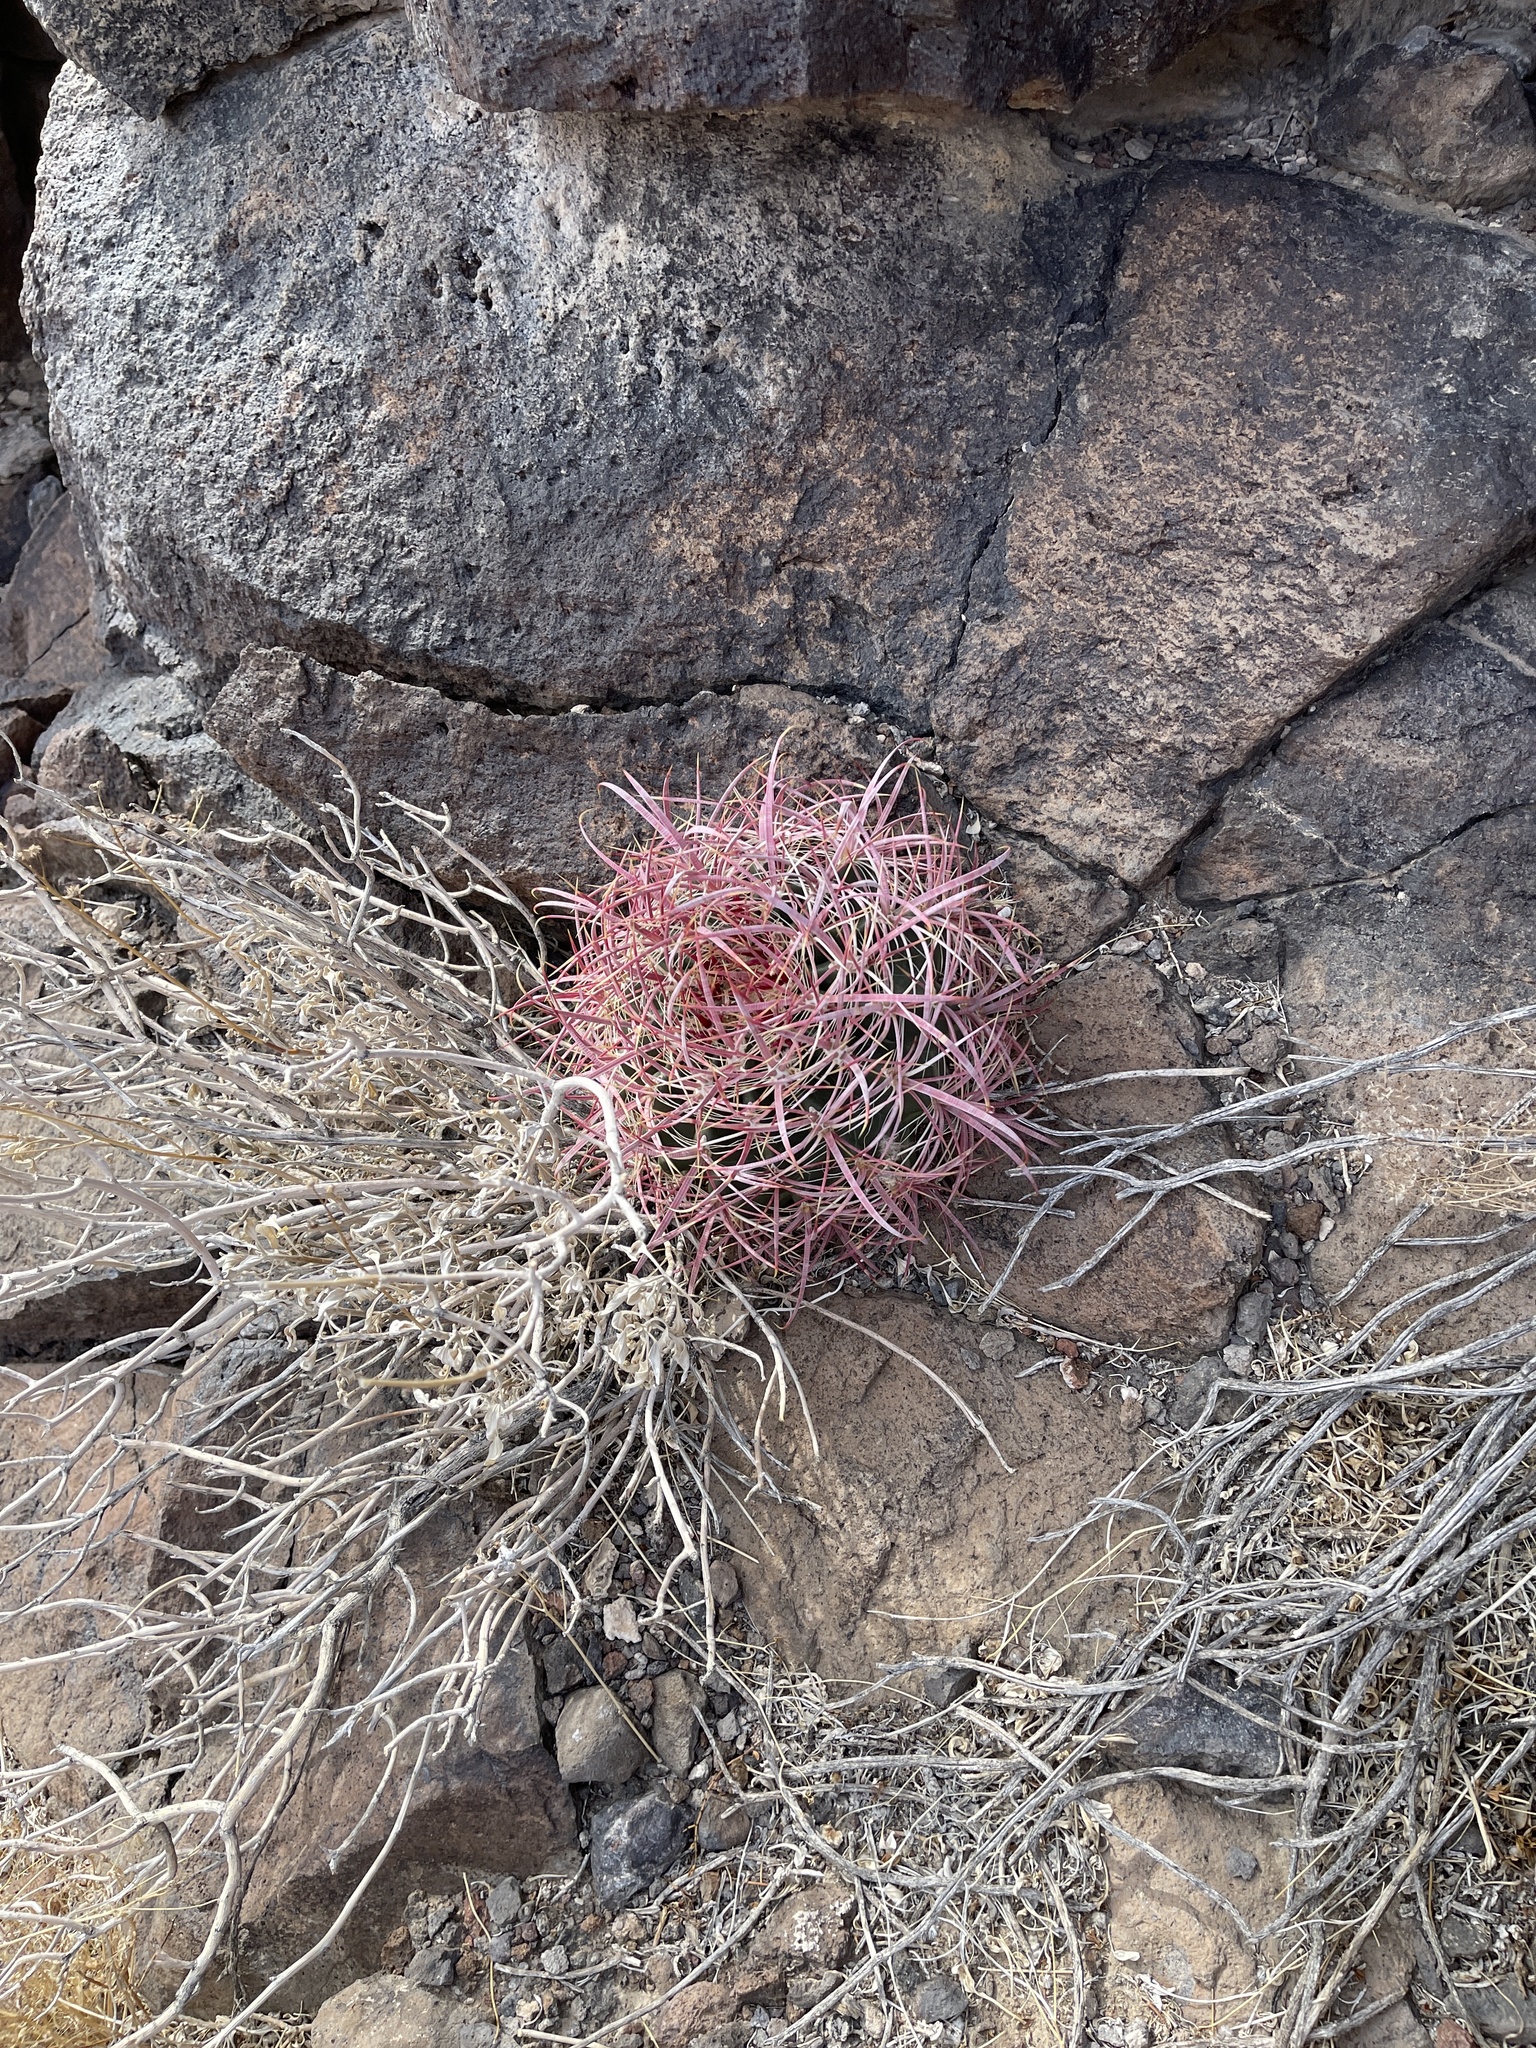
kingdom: Plantae
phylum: Tracheophyta
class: Magnoliopsida
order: Caryophyllales
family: Cactaceae
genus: Ferocactus
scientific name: Ferocactus cylindraceus
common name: California barrel cactus
